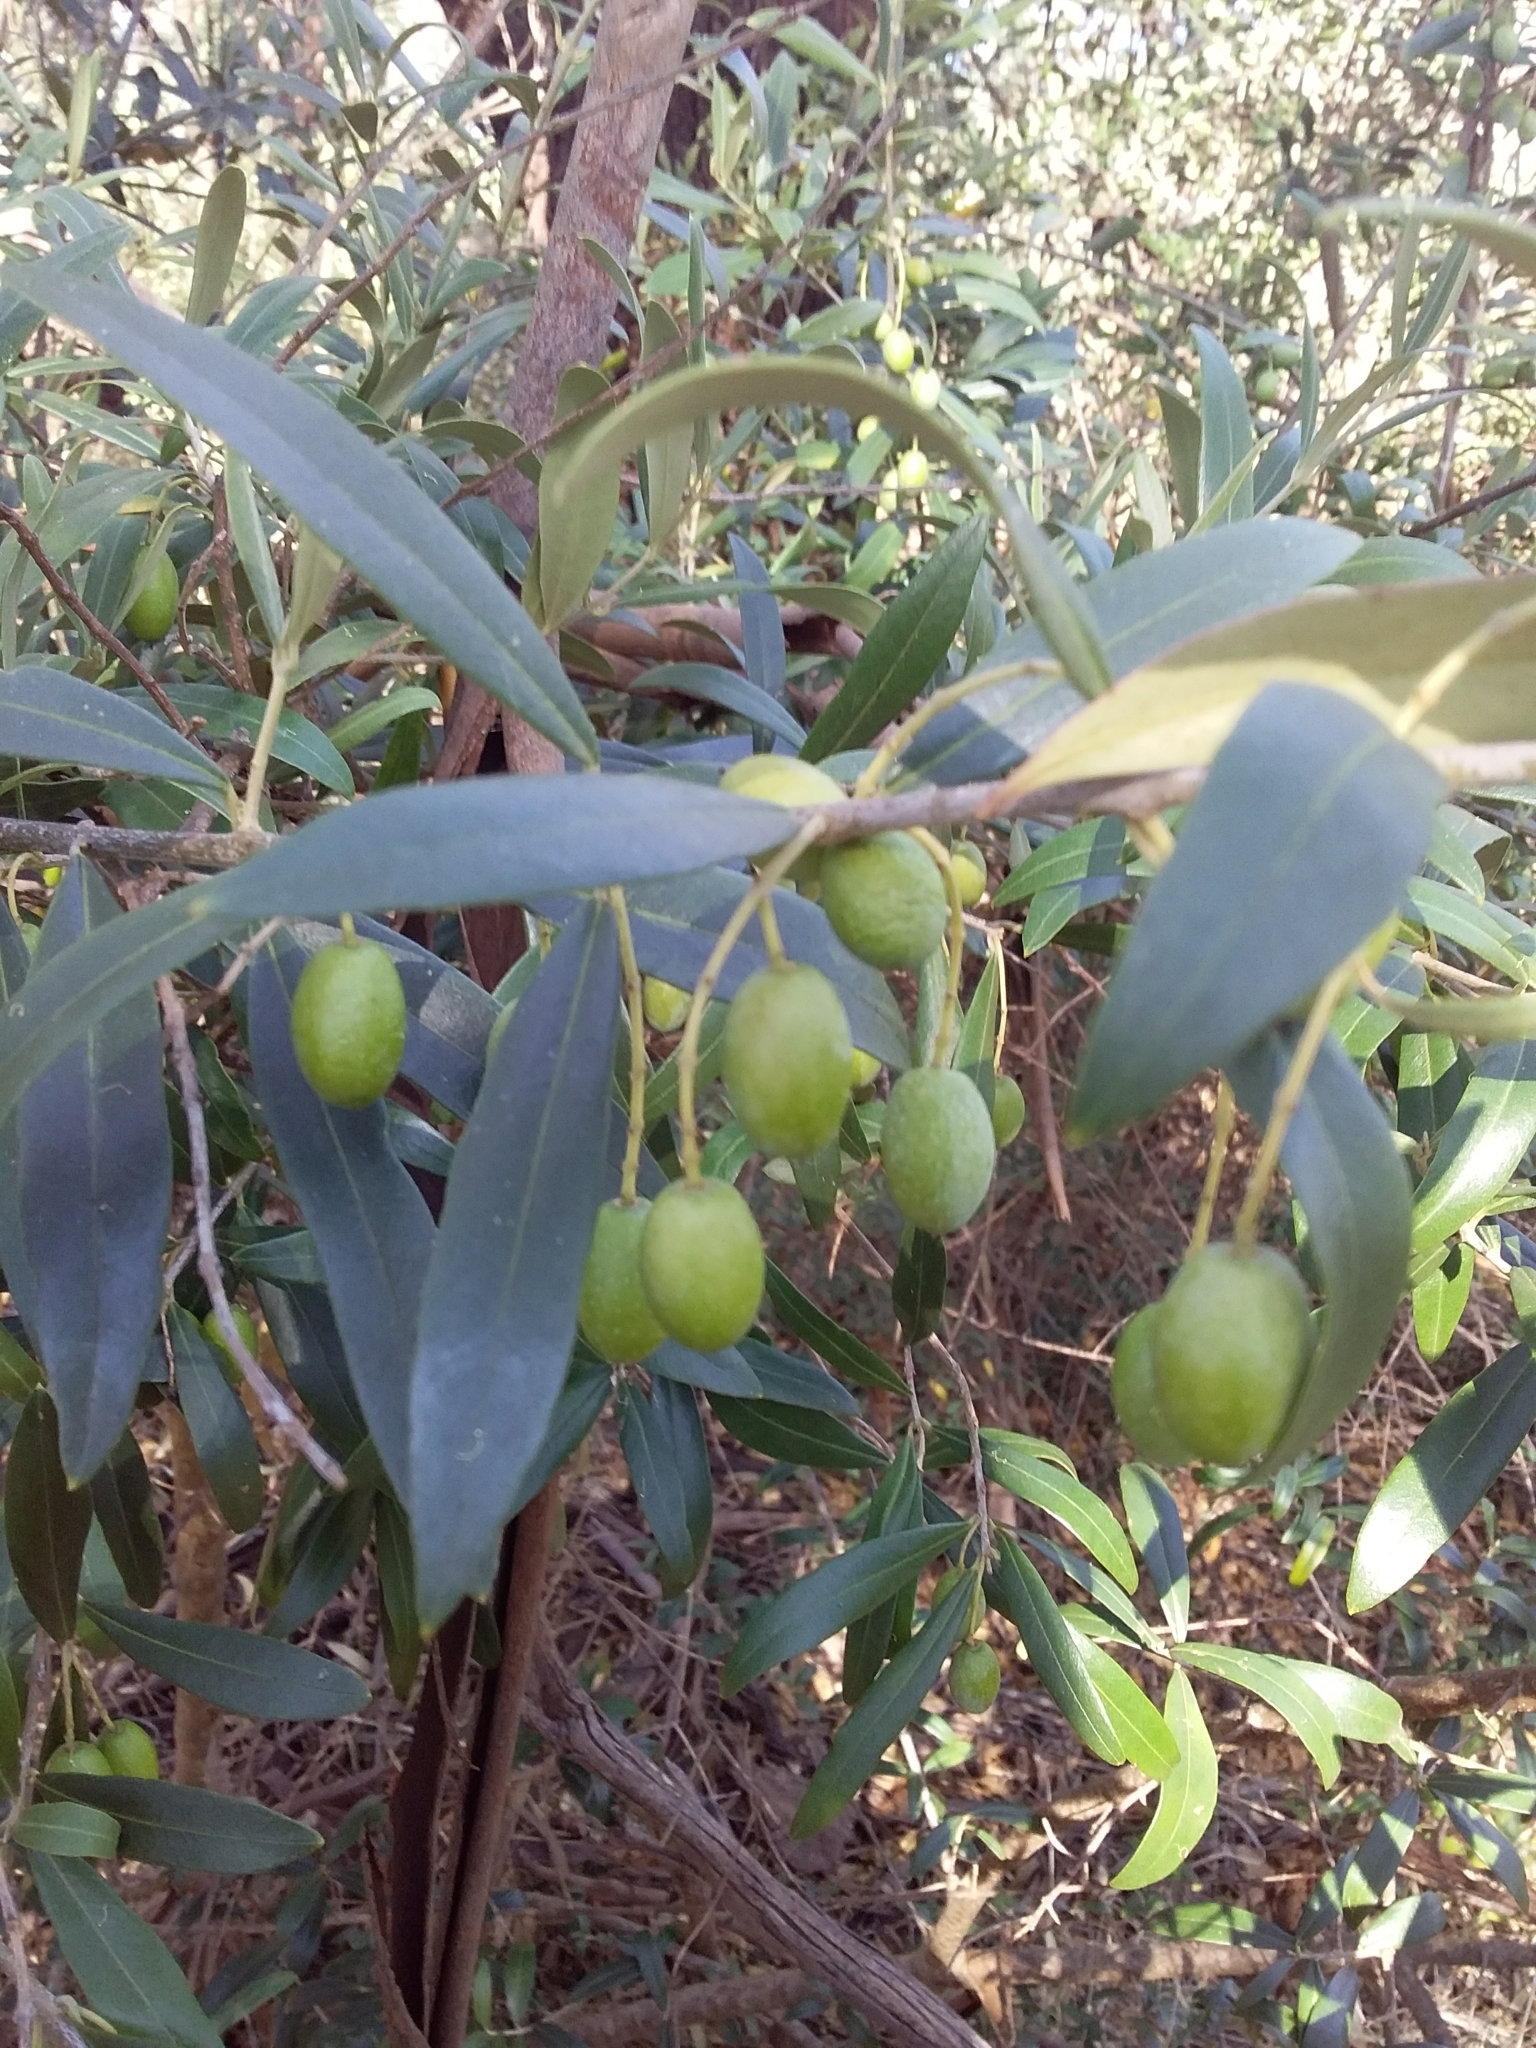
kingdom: Plantae
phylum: Tracheophyta
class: Magnoliopsida
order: Lamiales
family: Oleaceae
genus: Olea
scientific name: Olea europaea
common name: Olive
